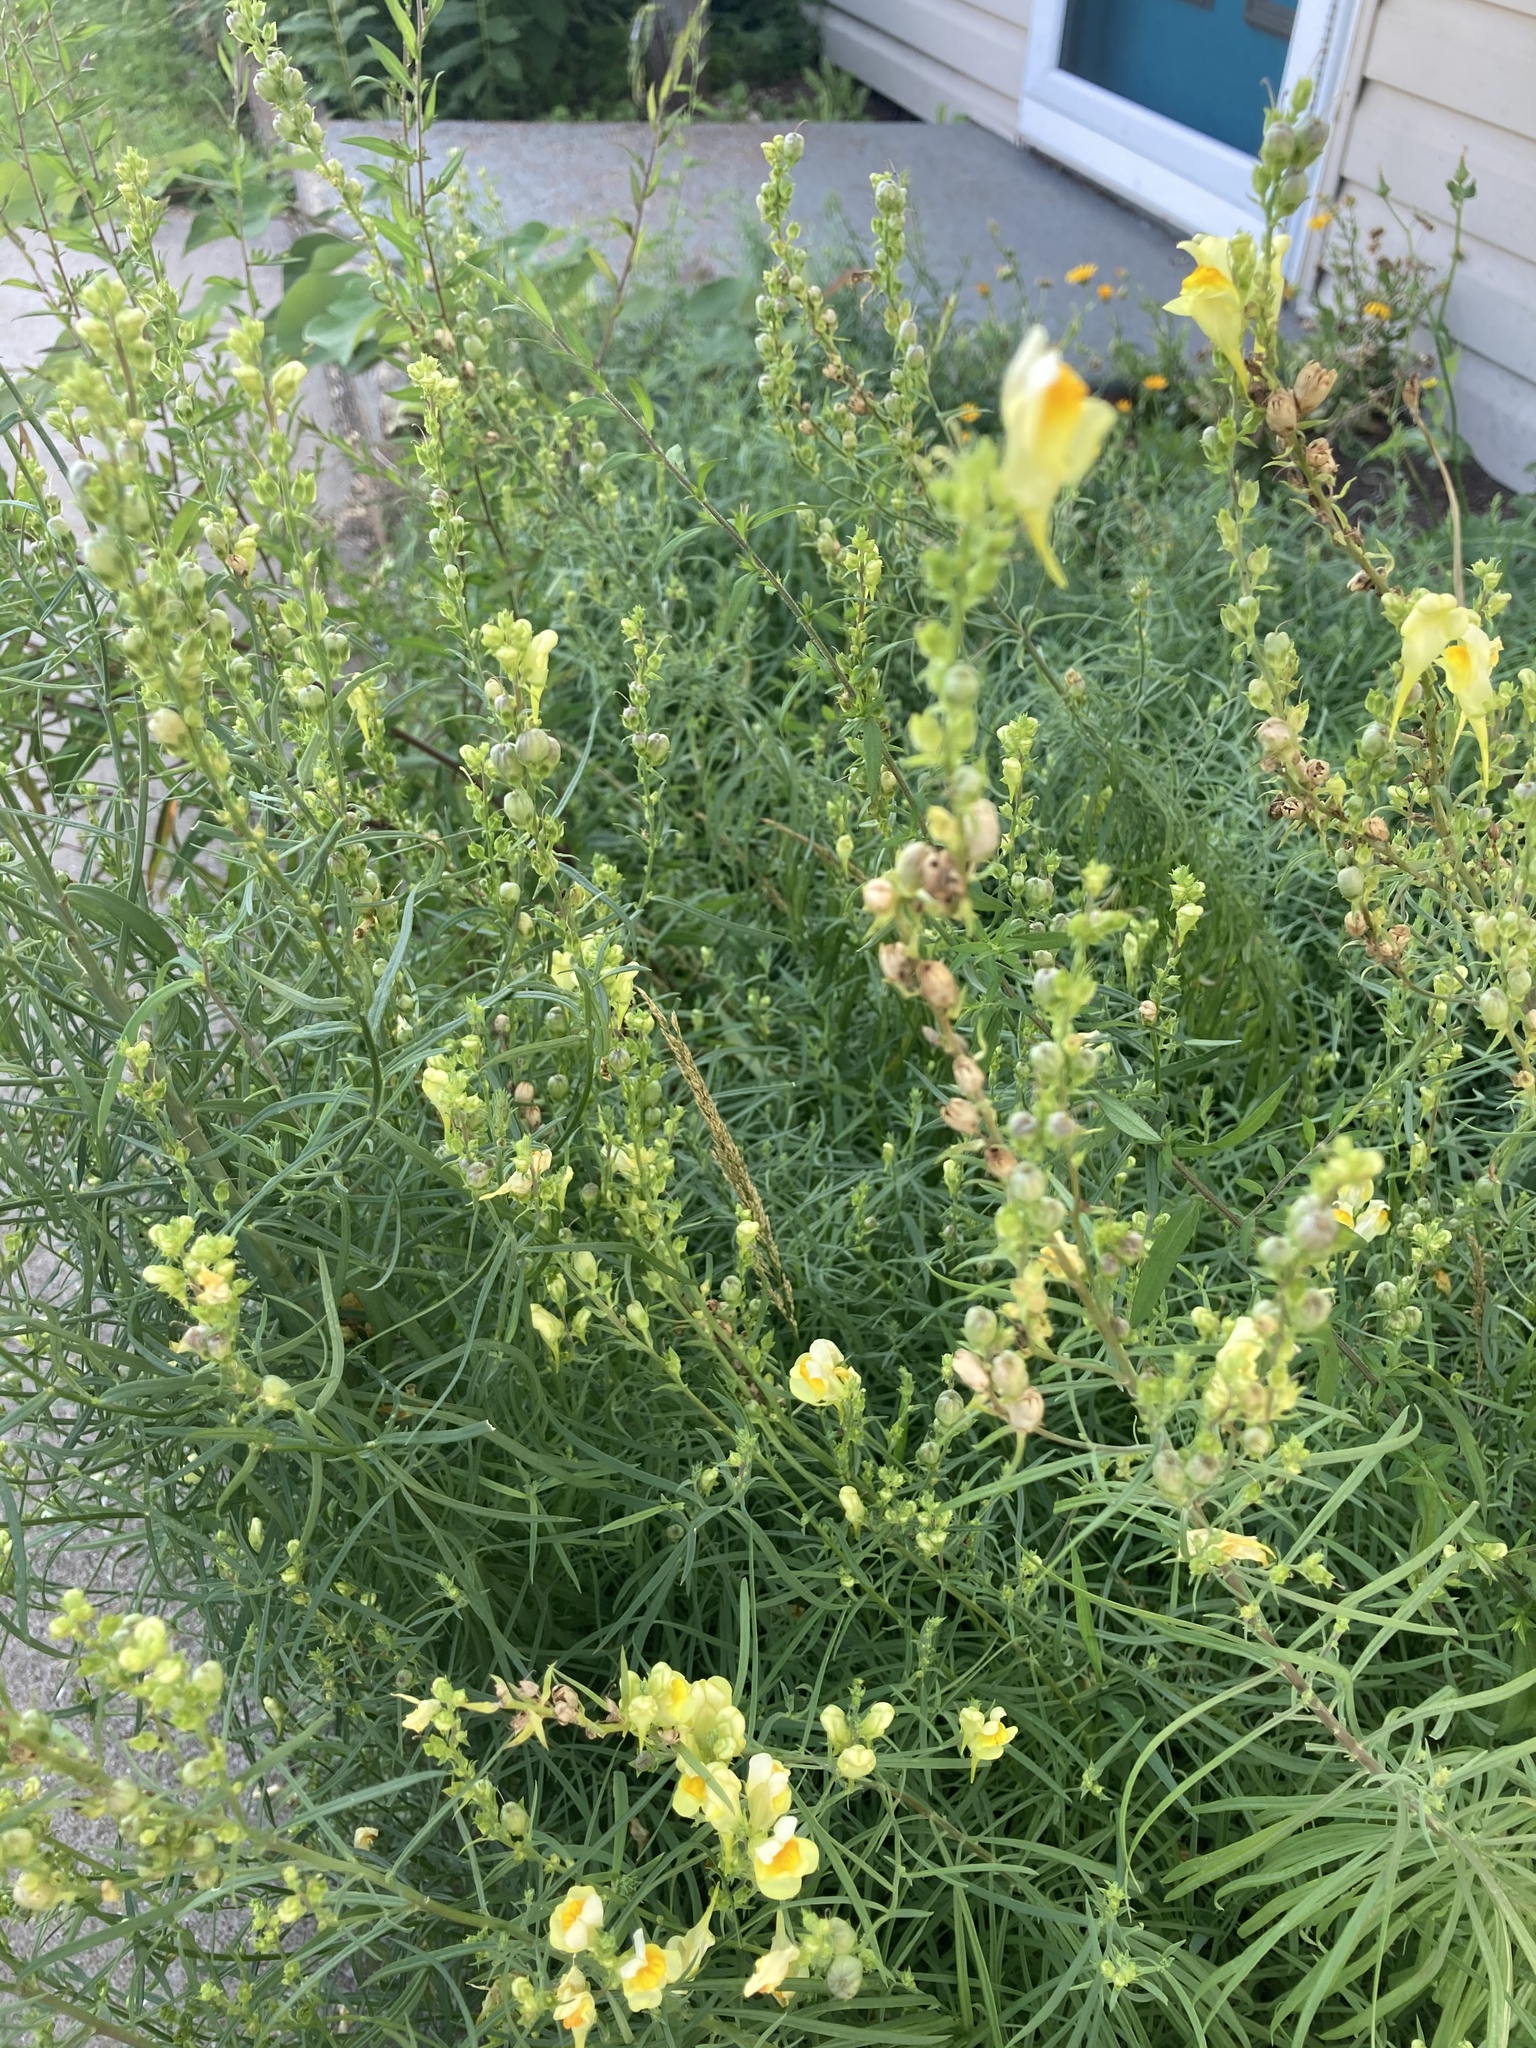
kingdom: Plantae
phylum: Tracheophyta
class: Magnoliopsida
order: Lamiales
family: Plantaginaceae
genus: Linaria
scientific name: Linaria vulgaris
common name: Butter and eggs
